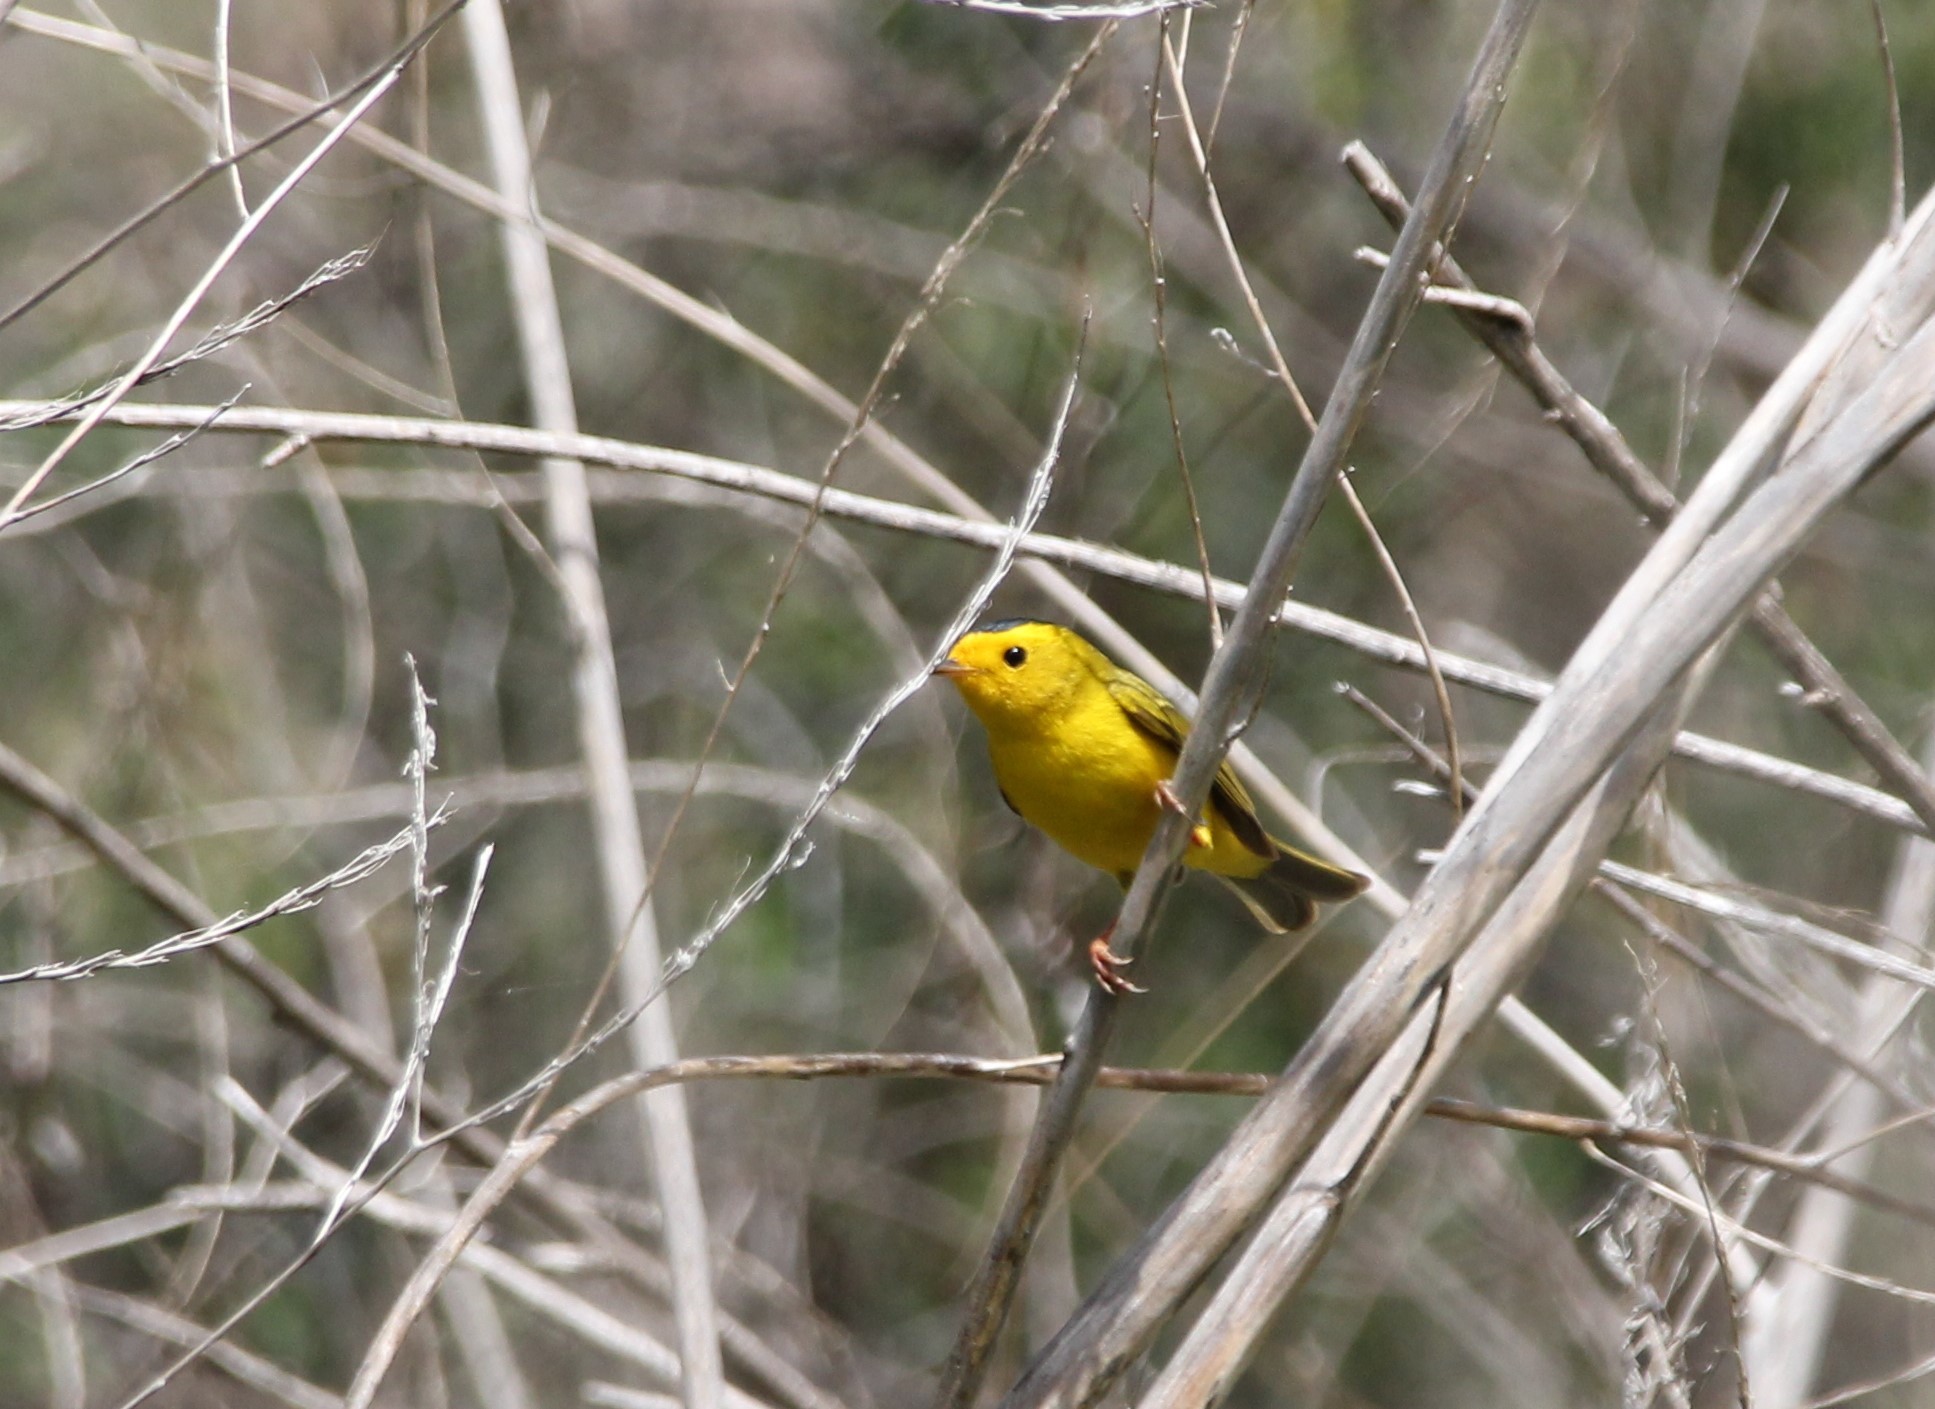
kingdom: Animalia
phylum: Chordata
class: Aves
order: Passeriformes
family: Parulidae
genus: Cardellina
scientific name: Cardellina pusilla
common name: Wilson's warbler
